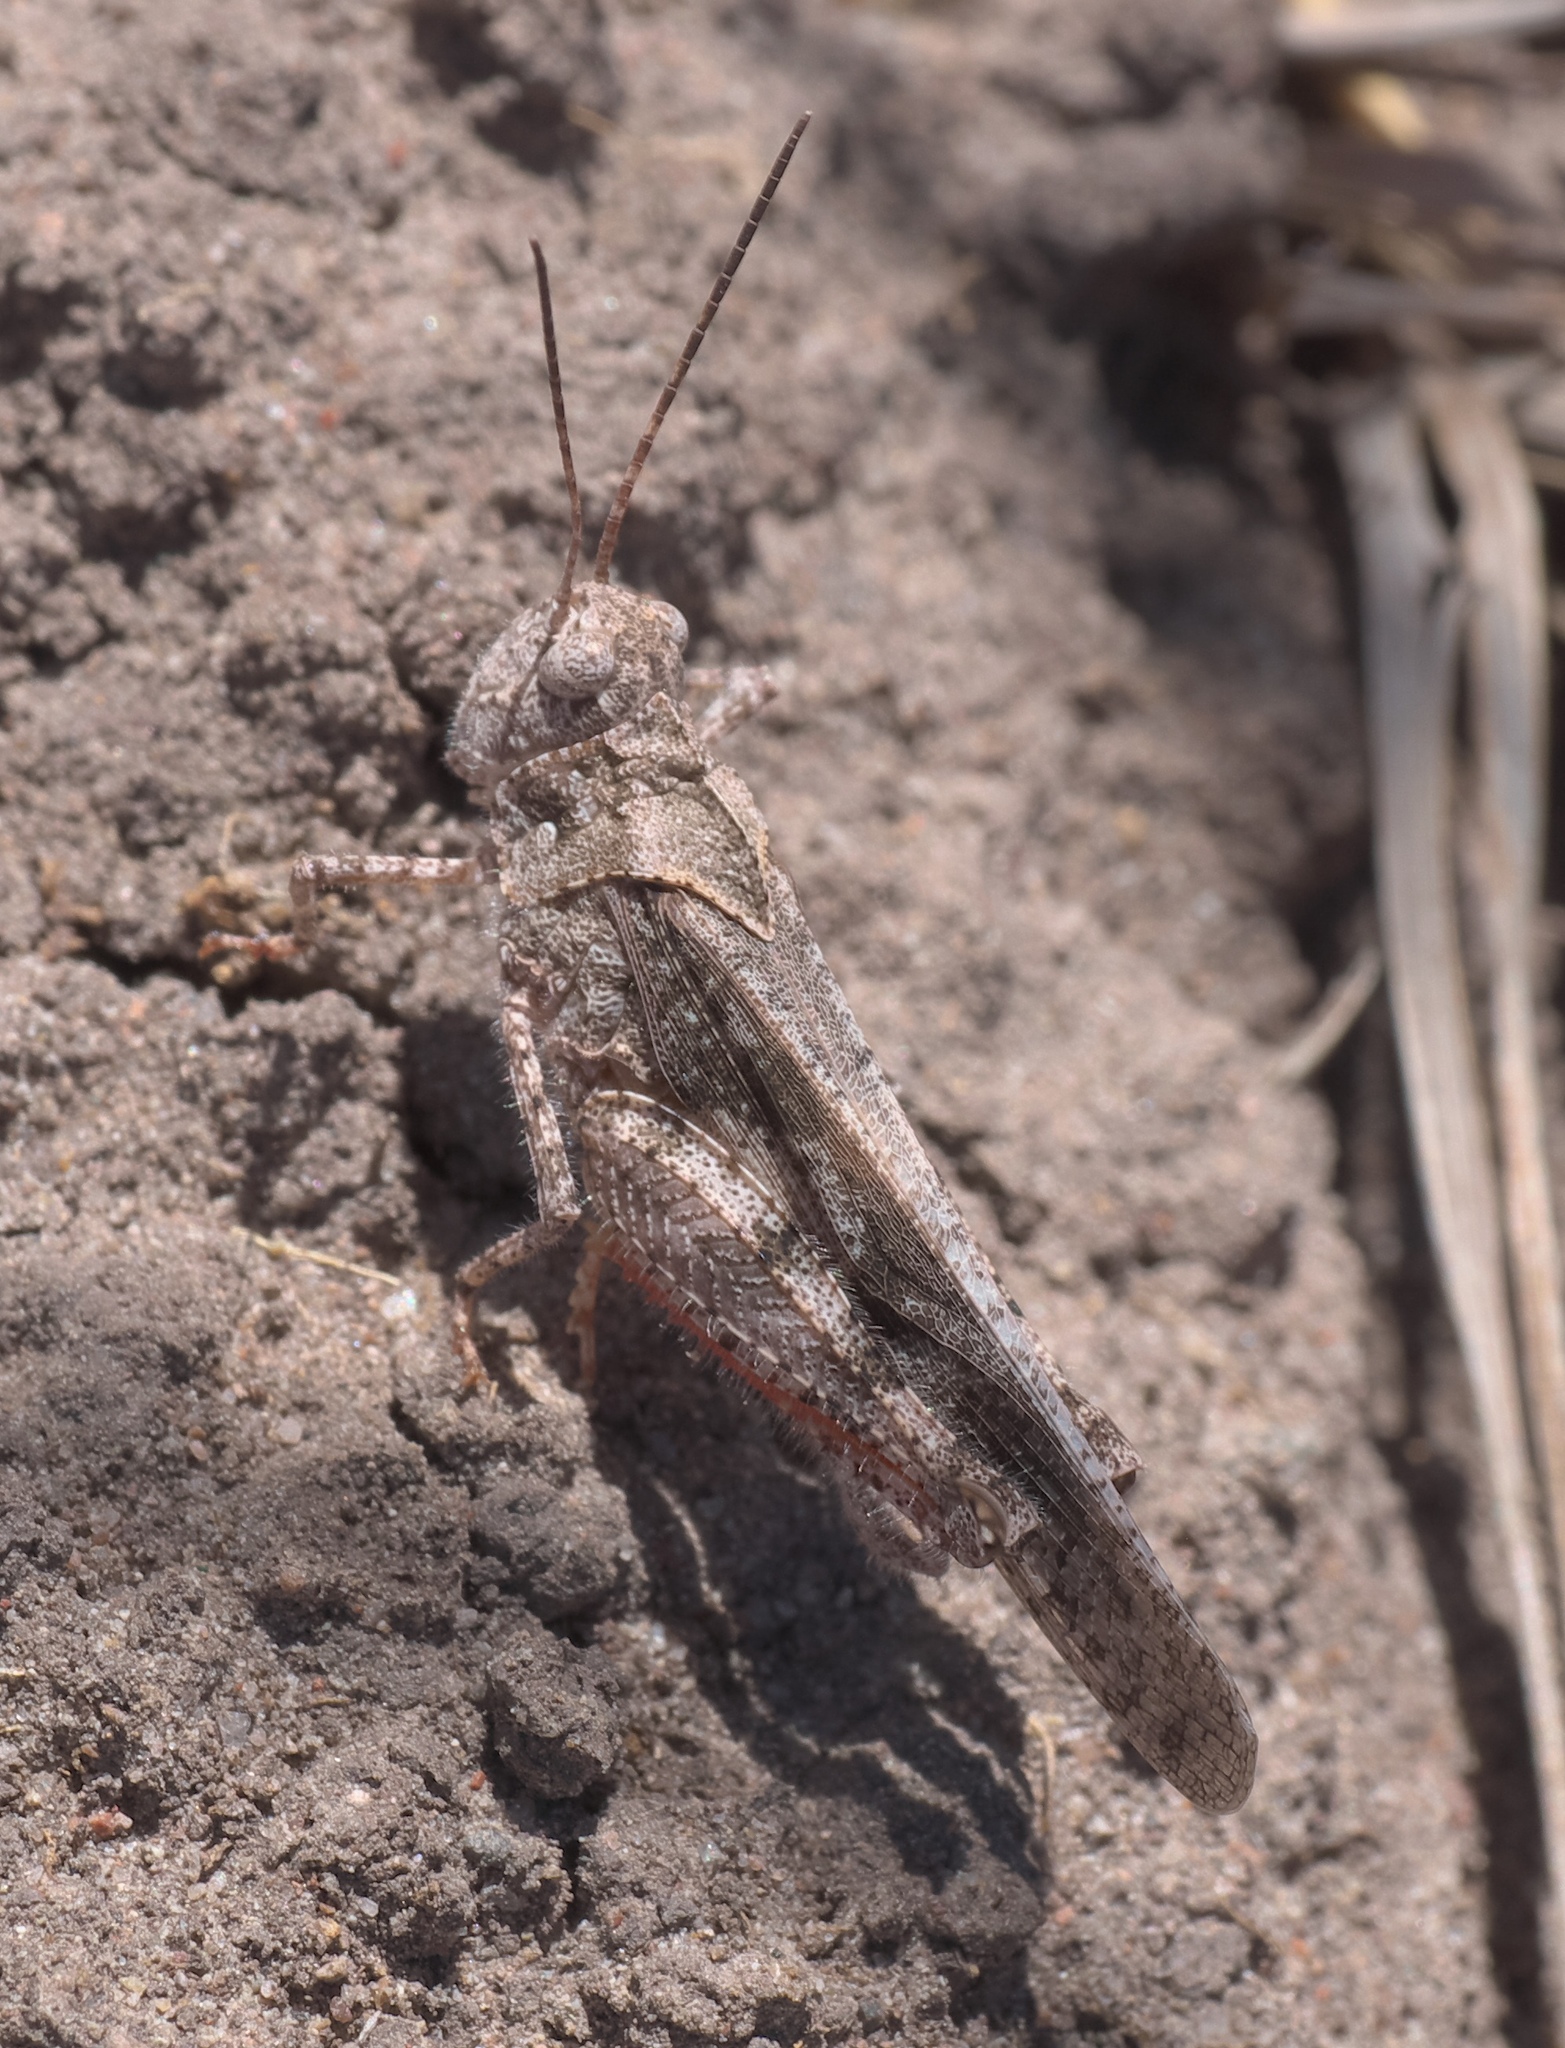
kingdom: Animalia
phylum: Arthropoda
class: Insecta
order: Orthoptera
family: Acrididae
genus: Spharagemon
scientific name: Spharagemon collare
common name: Mottled sand grasshopper
